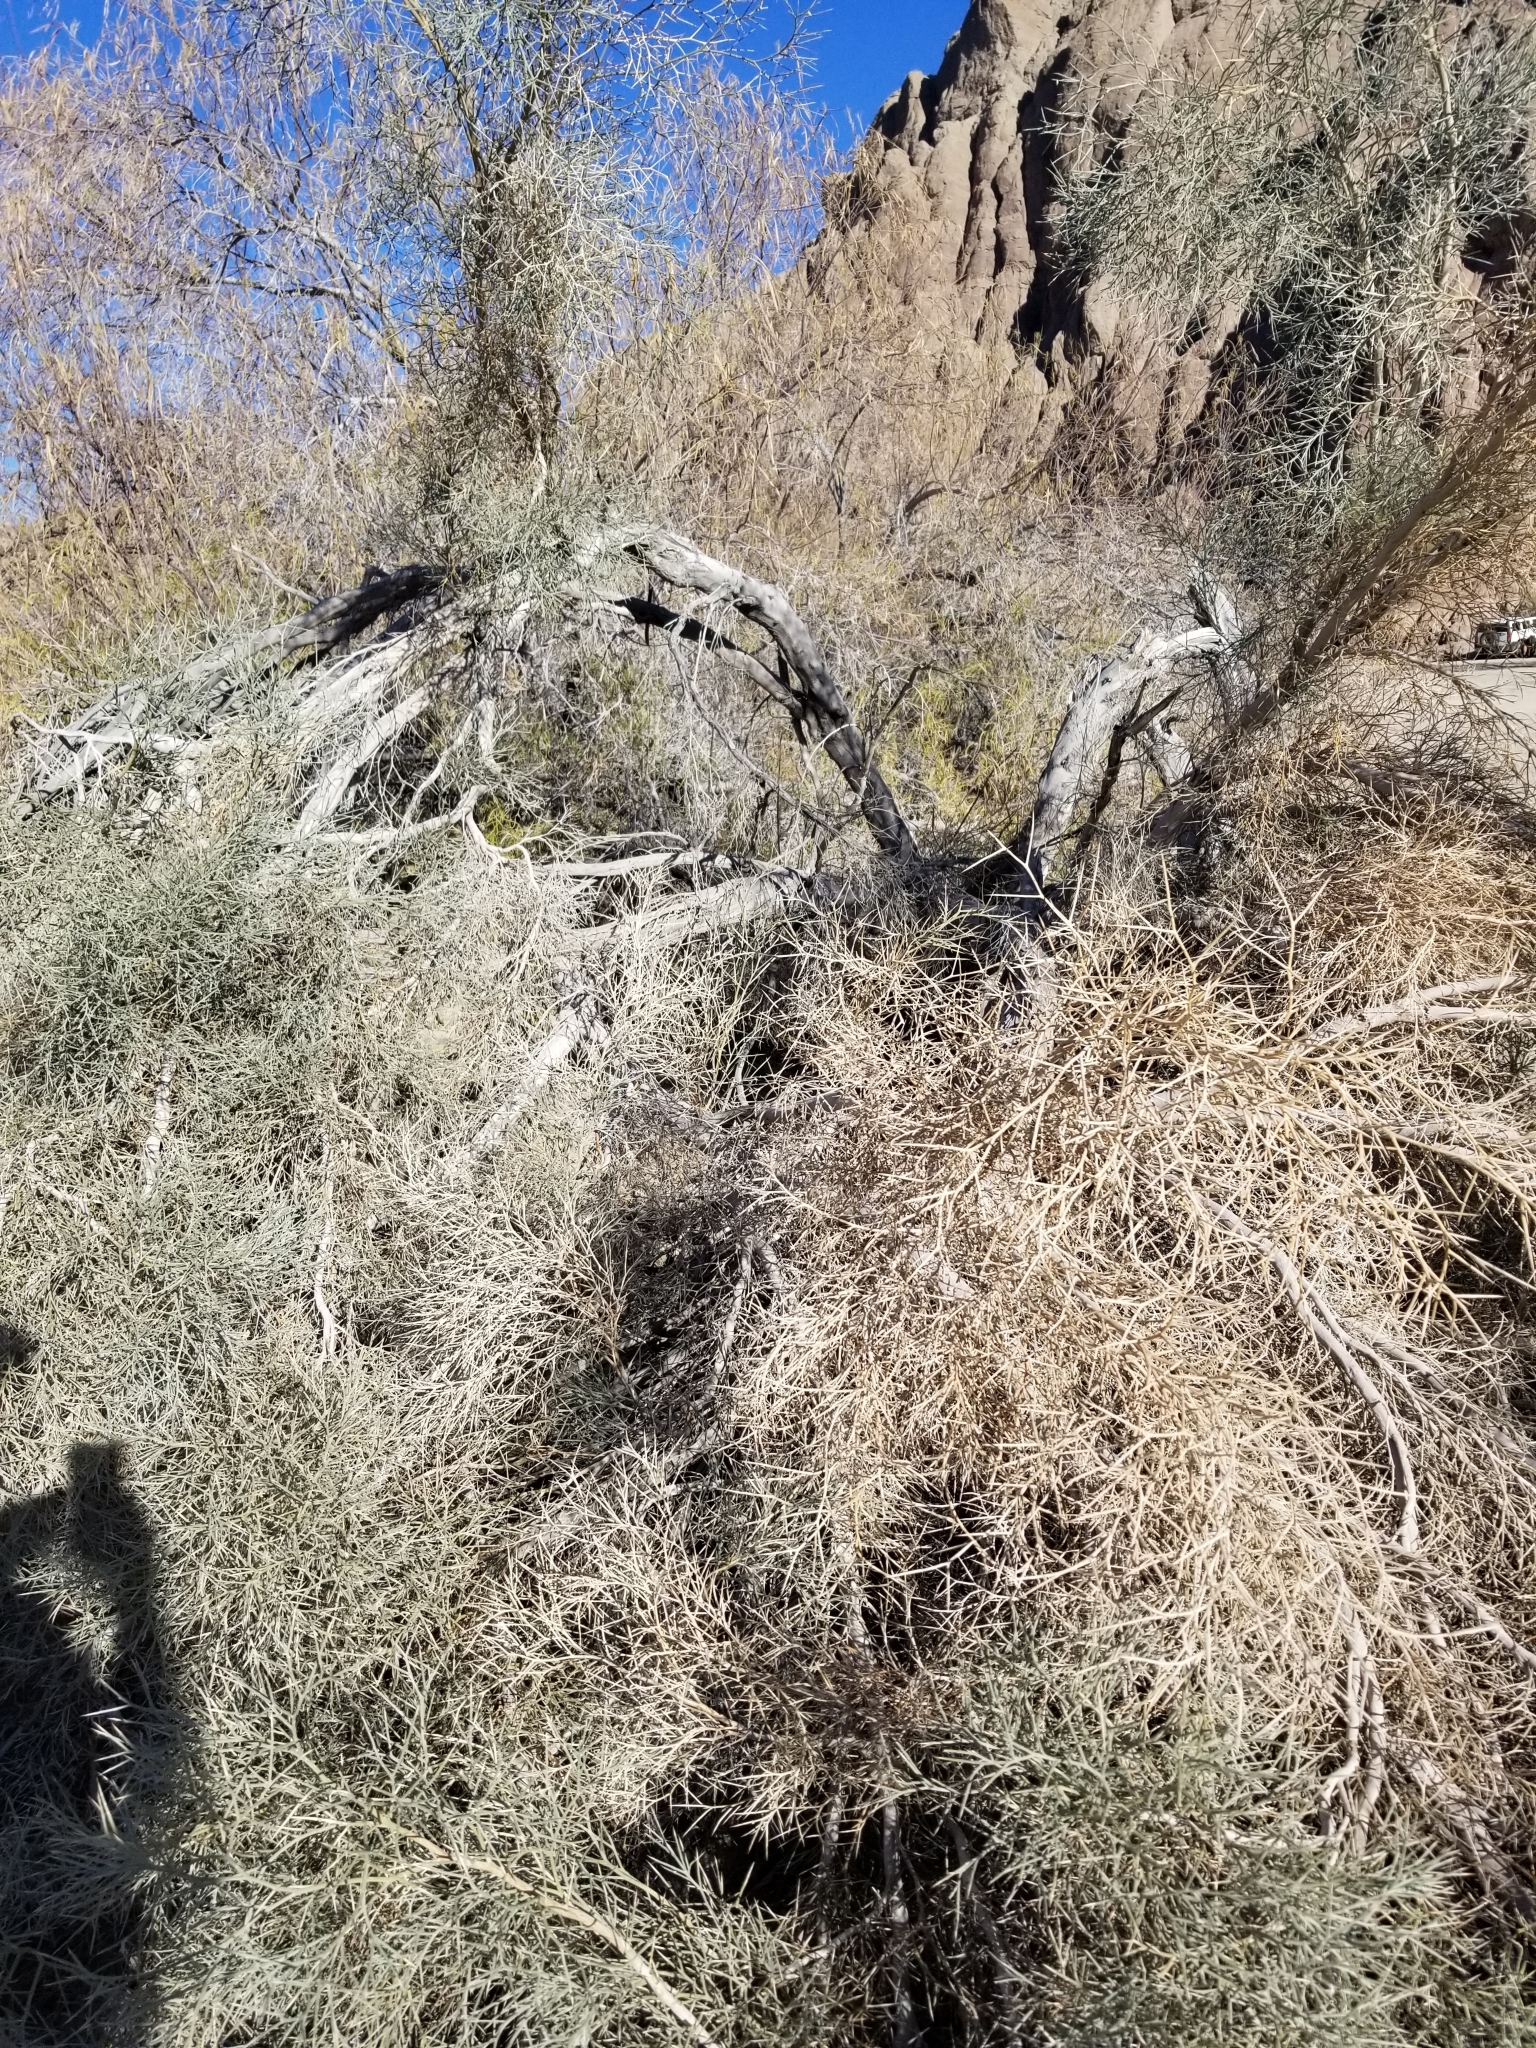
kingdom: Plantae
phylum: Tracheophyta
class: Magnoliopsida
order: Fabales
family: Fabaceae
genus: Psorothamnus
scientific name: Psorothamnus spinosus
